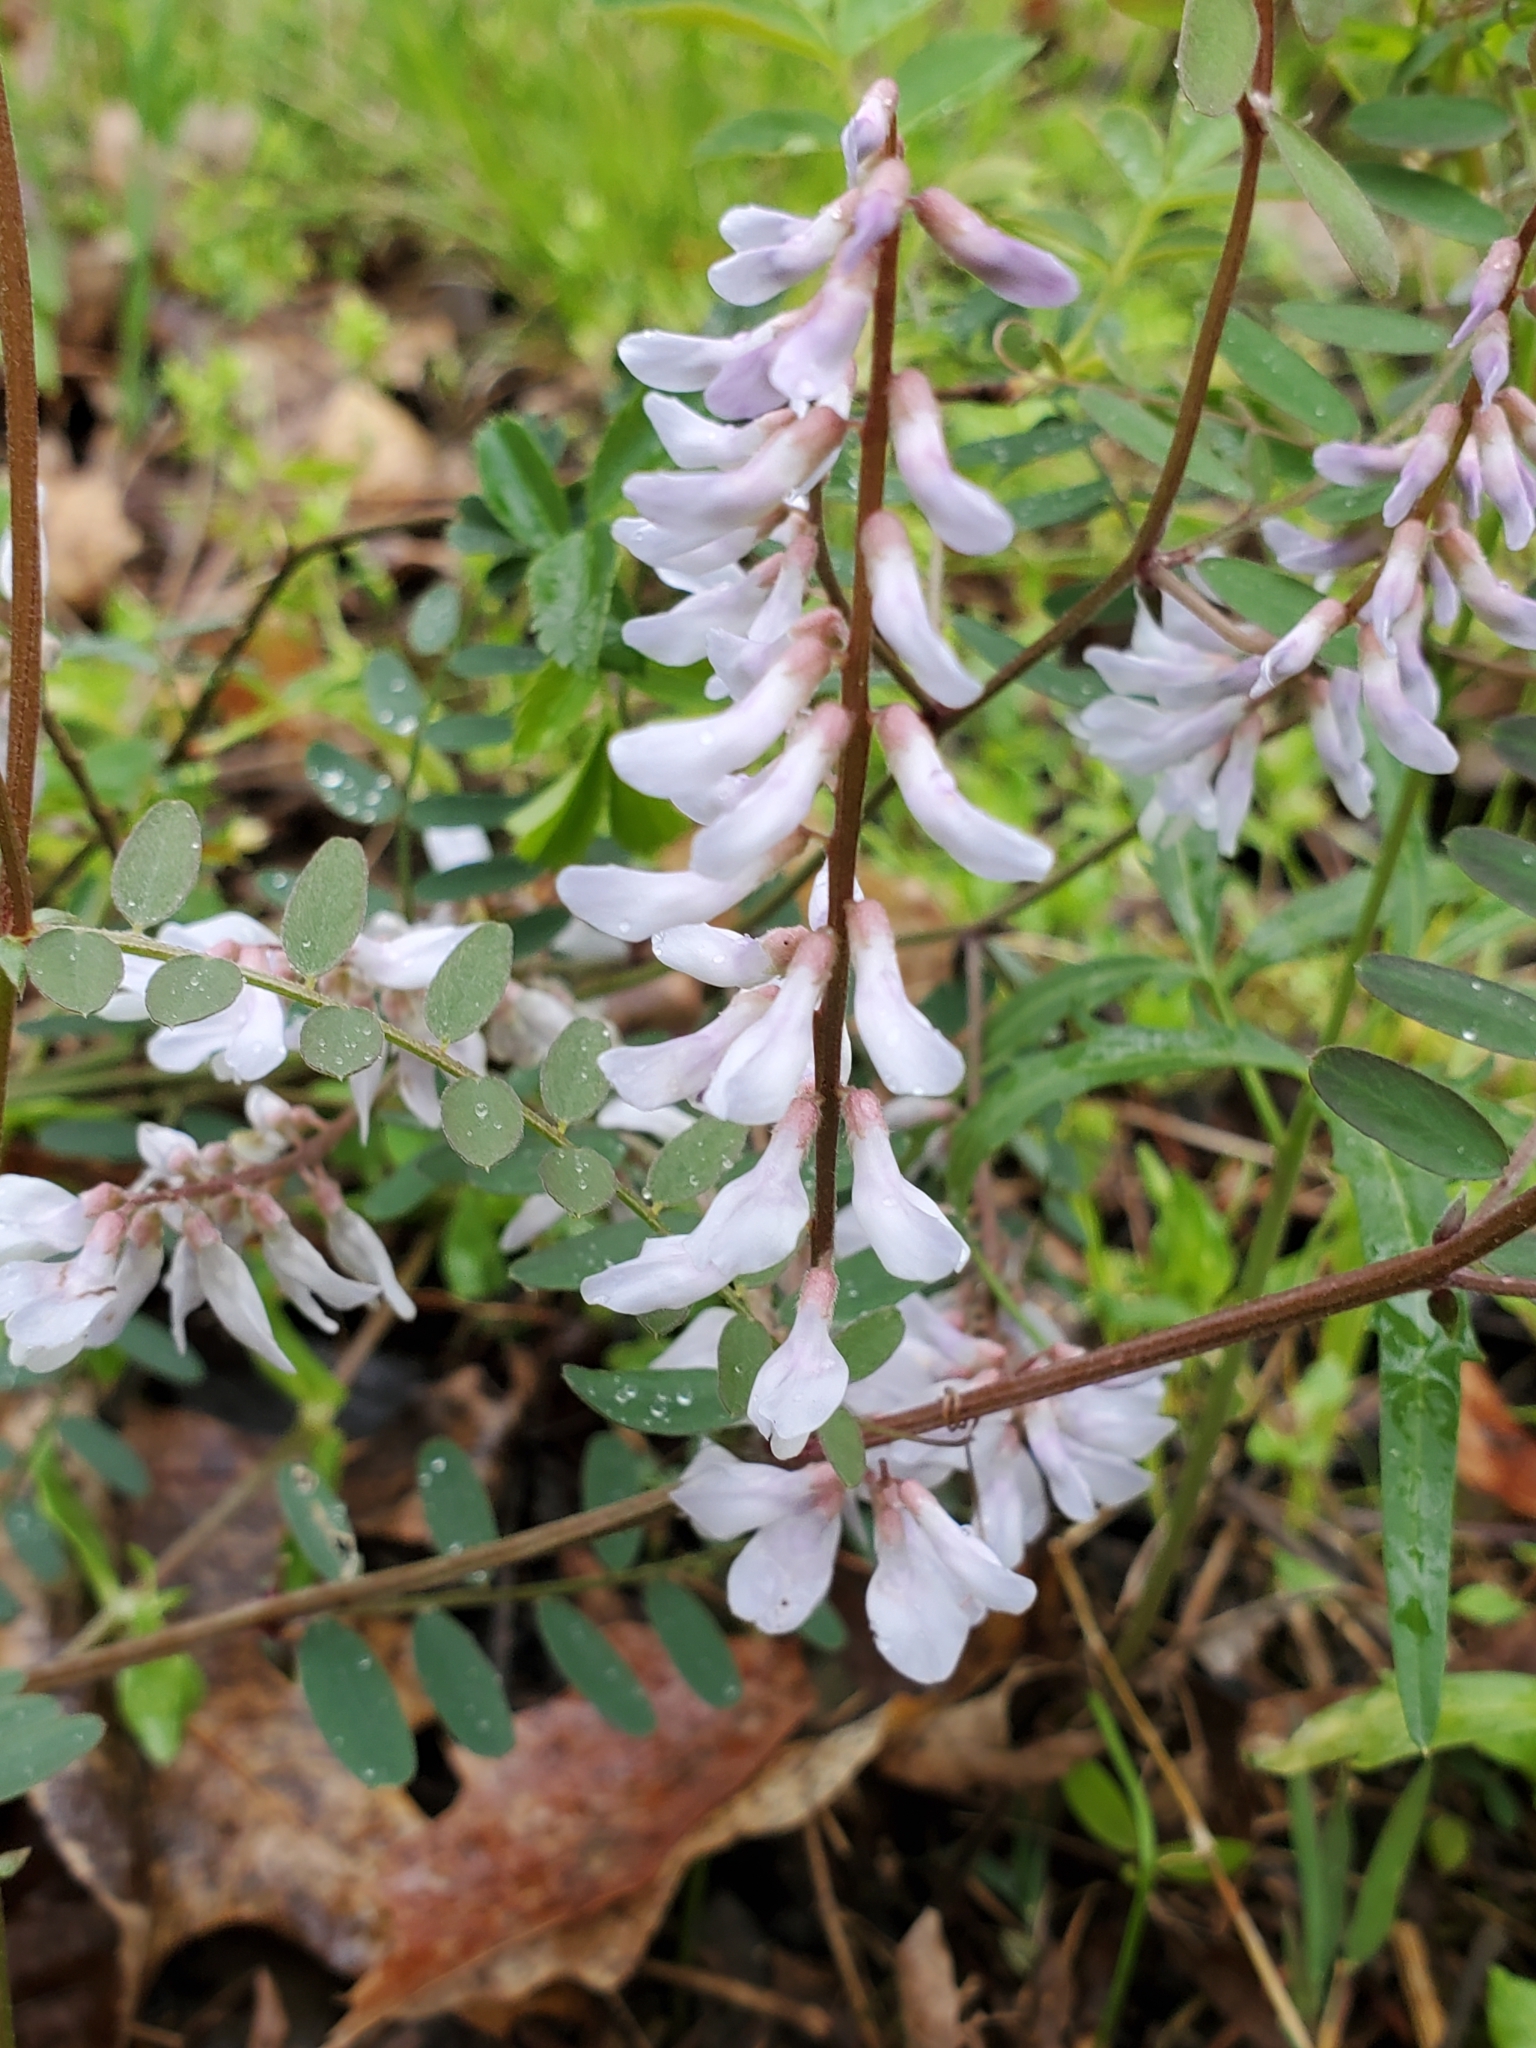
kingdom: Plantae
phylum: Tracheophyta
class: Magnoliopsida
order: Fabales
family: Fabaceae
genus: Vicia
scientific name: Vicia caroliniana
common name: Carolina vetch
